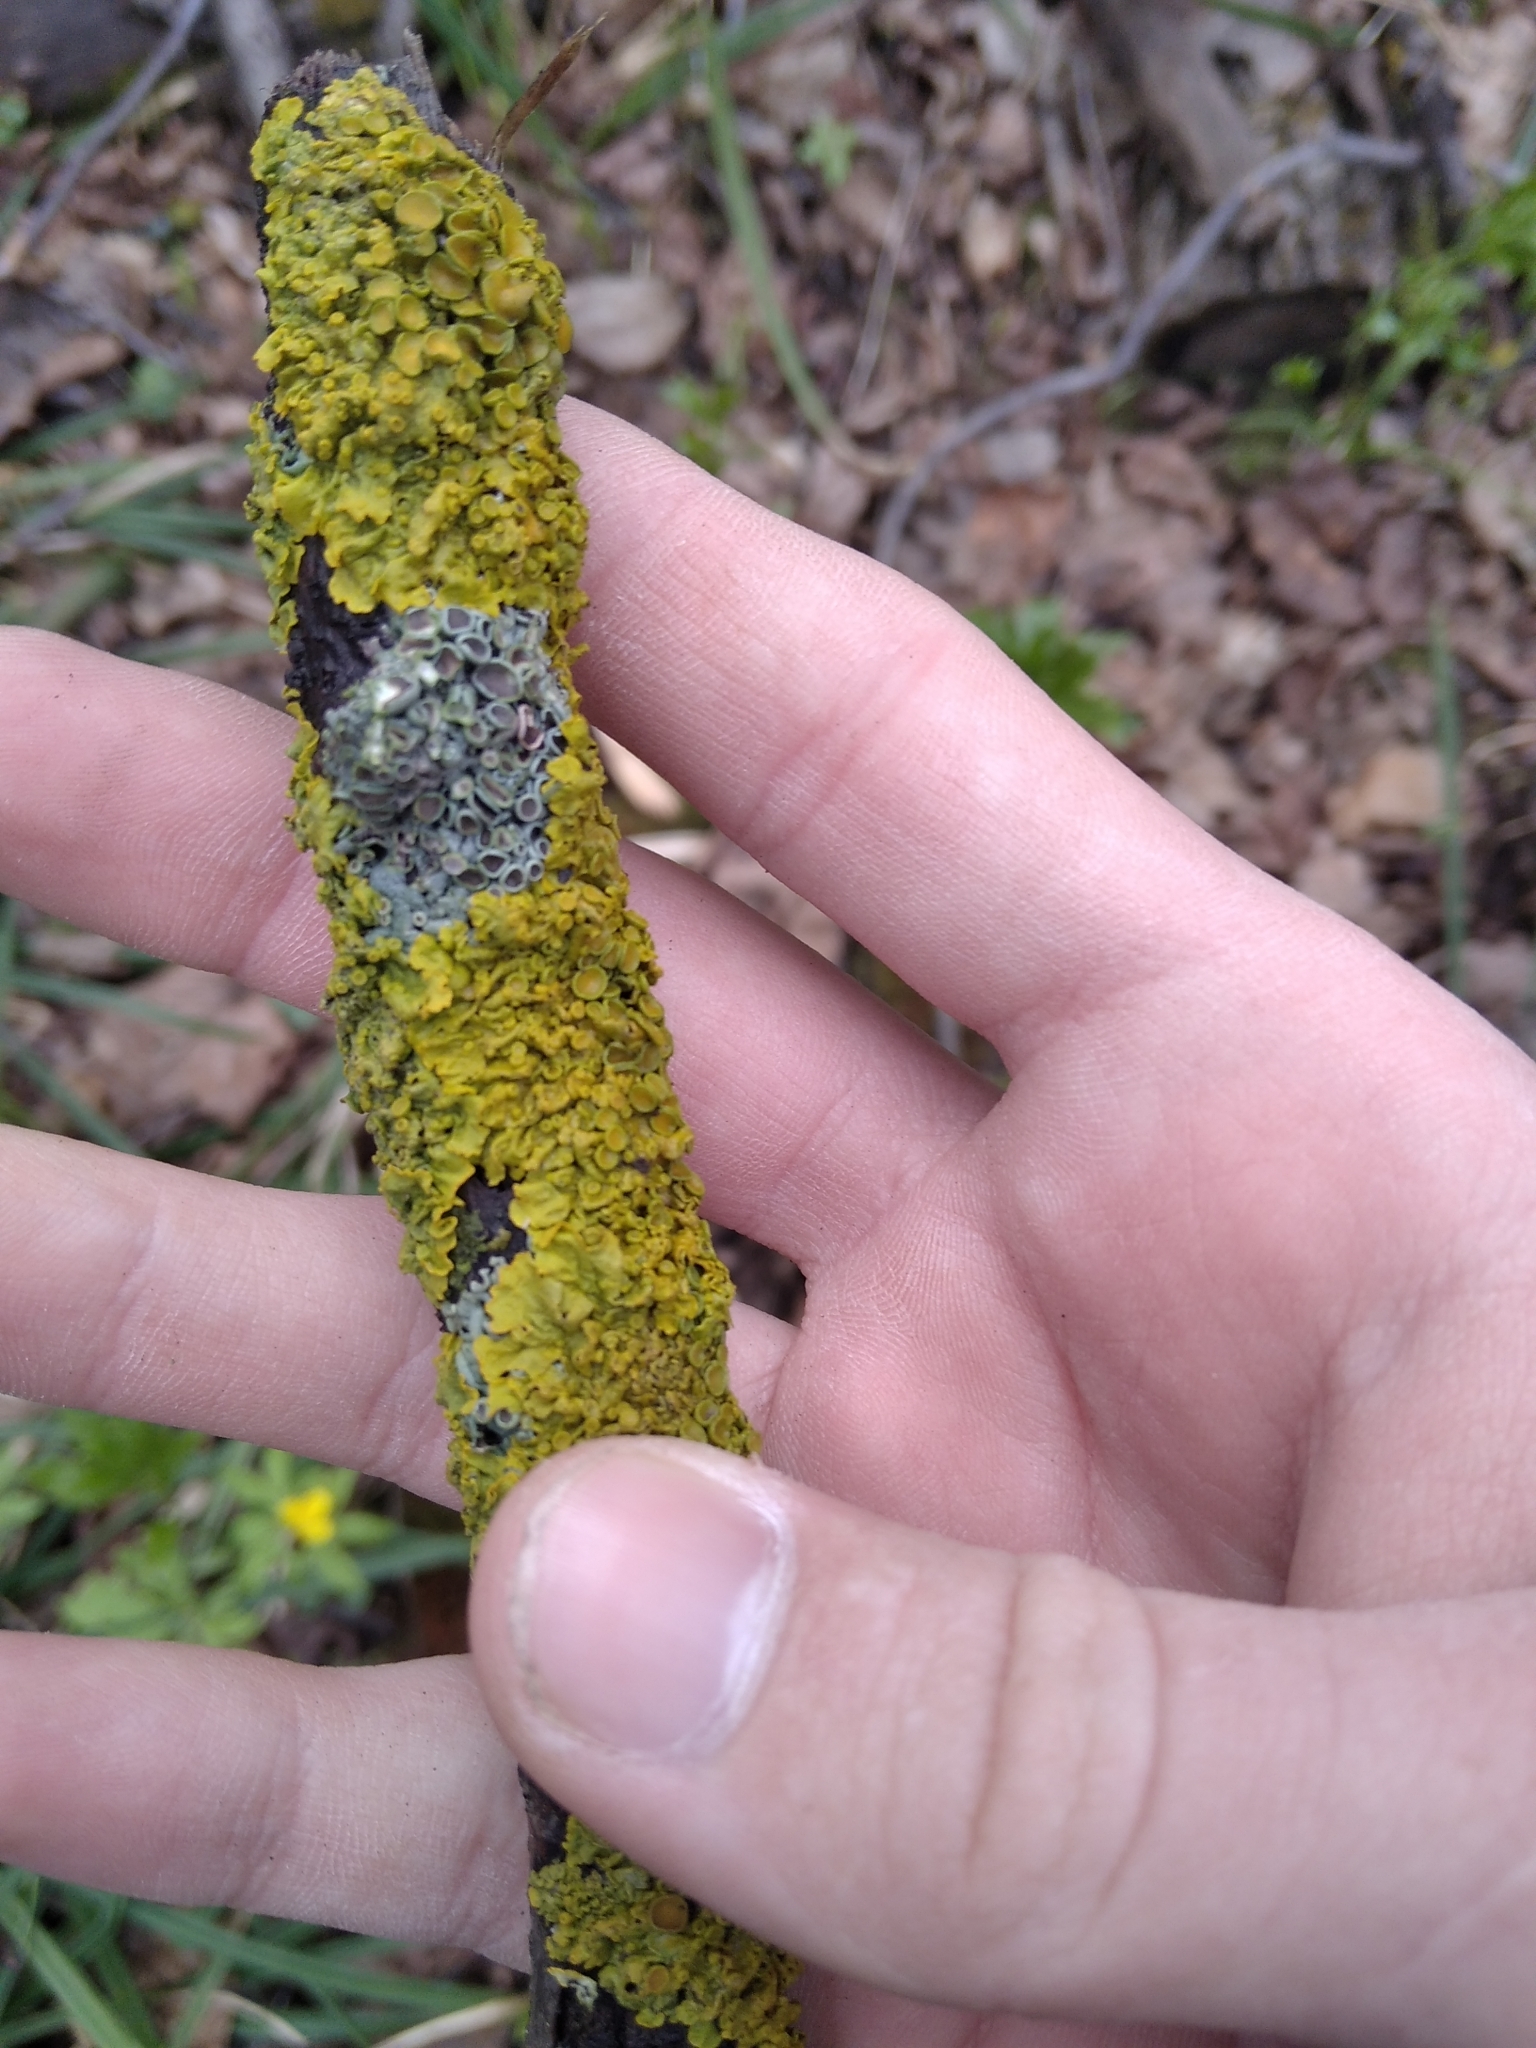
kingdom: Fungi
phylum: Ascomycota
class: Lecanoromycetes
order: Teloschistales
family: Teloschistaceae
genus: Xanthoria
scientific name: Xanthoria parietina
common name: Common orange lichen
